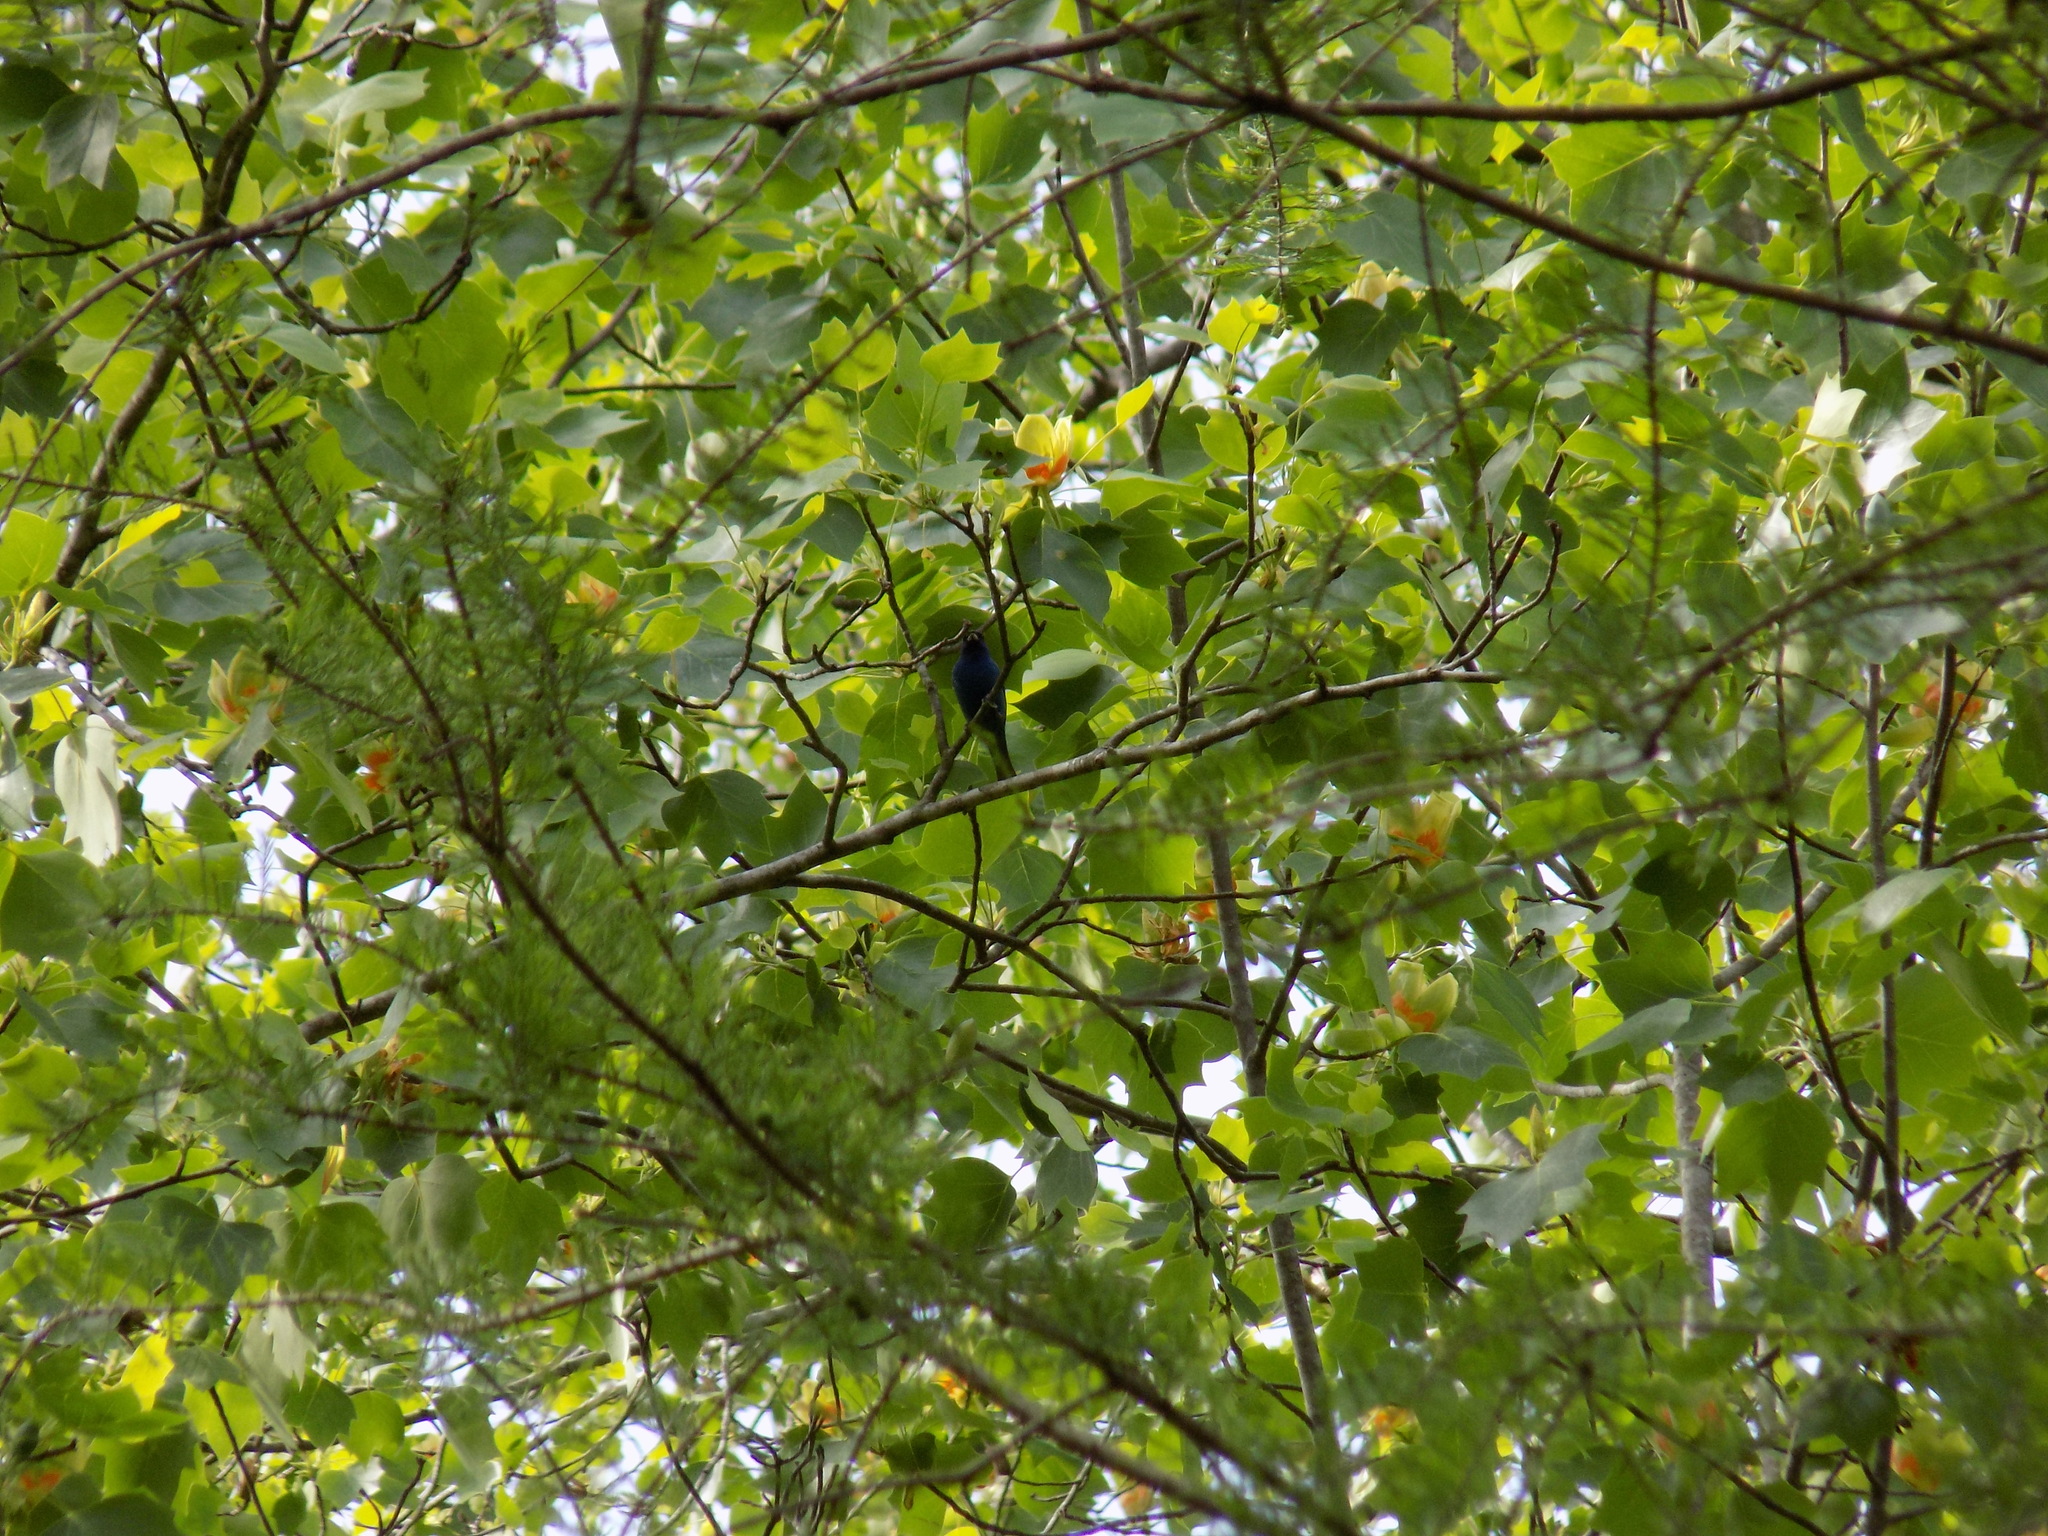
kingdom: Animalia
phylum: Chordata
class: Aves
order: Passeriformes
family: Cardinalidae
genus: Passerina
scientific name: Passerina cyanea
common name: Indigo bunting
